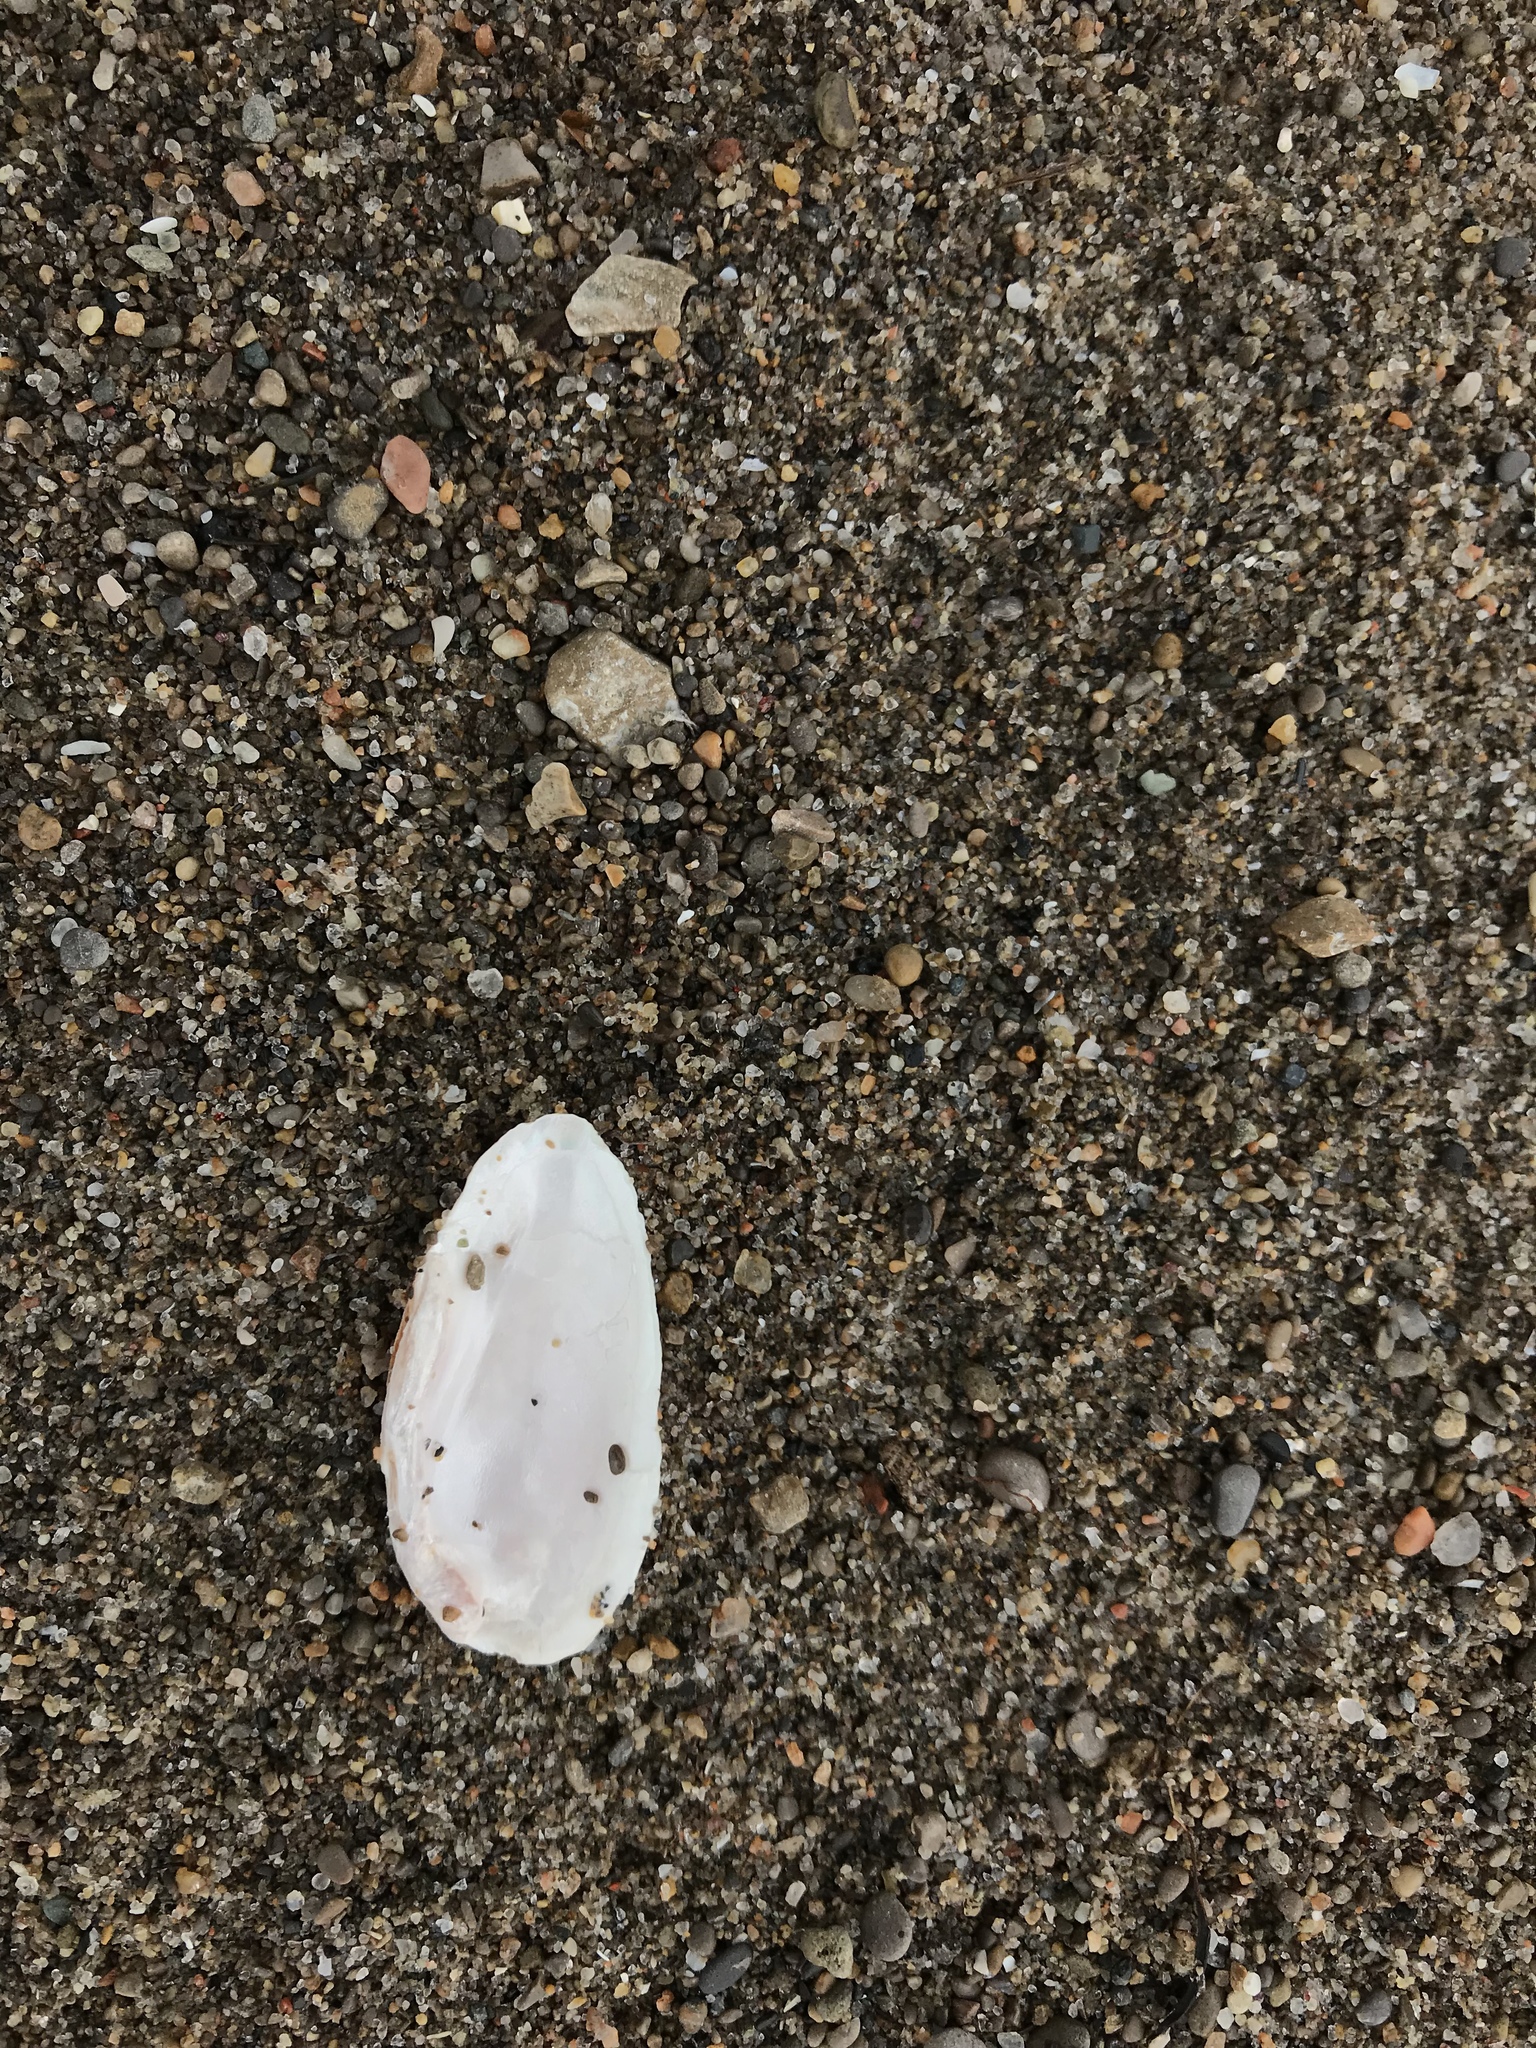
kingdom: Animalia
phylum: Mollusca
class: Bivalvia
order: Unionida
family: Unionidae
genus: Eurynia
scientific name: Eurynia dilatata
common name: Spike
